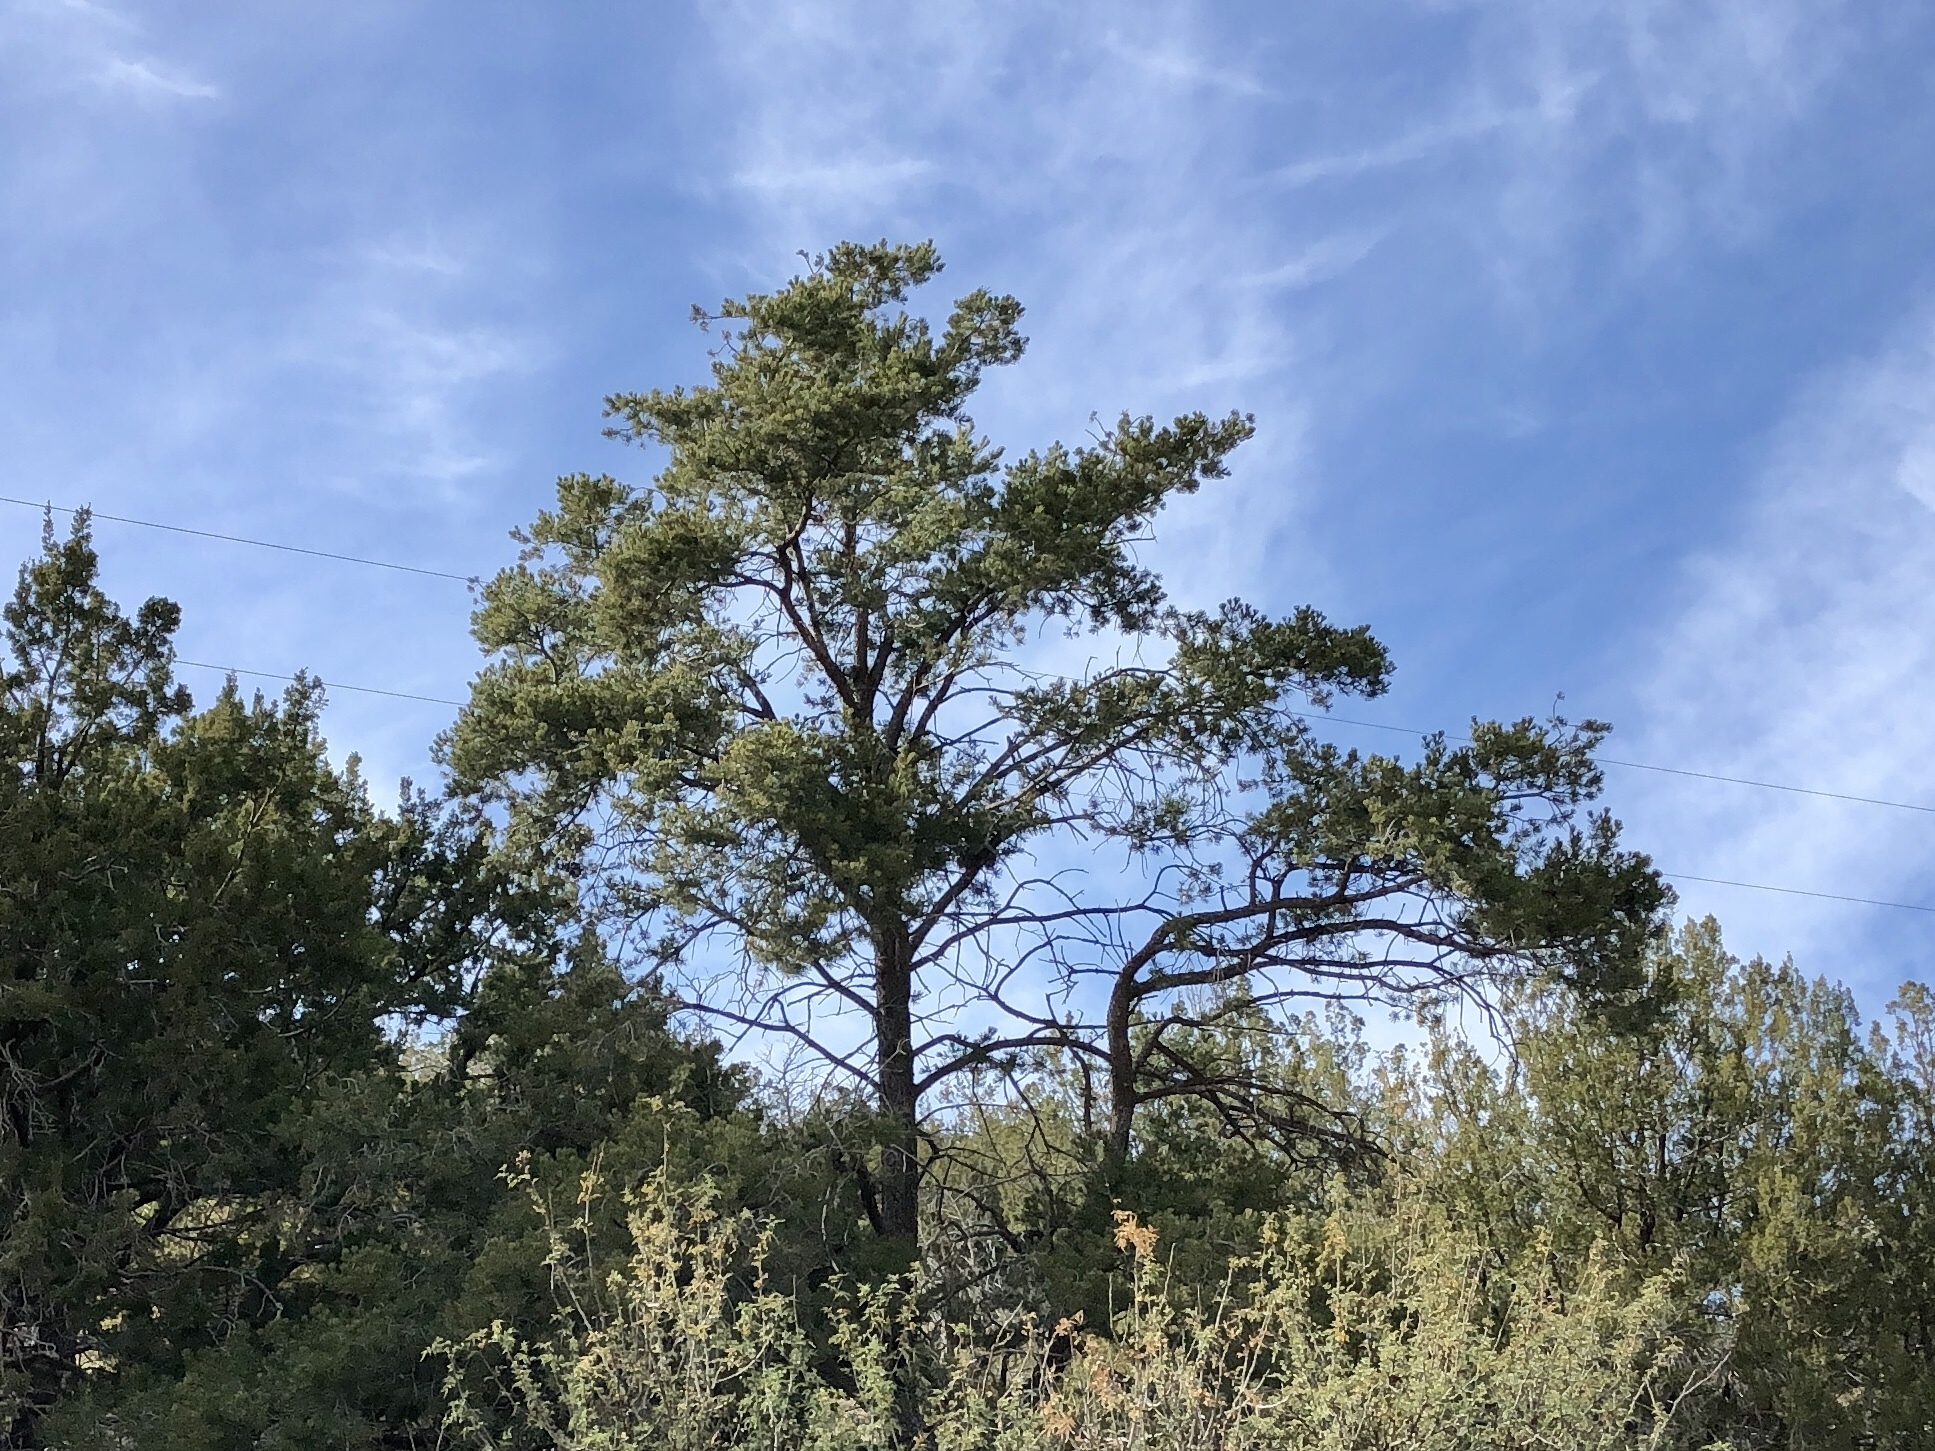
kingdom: Plantae
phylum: Tracheophyta
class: Pinopsida
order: Pinales
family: Pinaceae
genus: Pinus
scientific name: Pinus edulis
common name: Colorado pinyon
